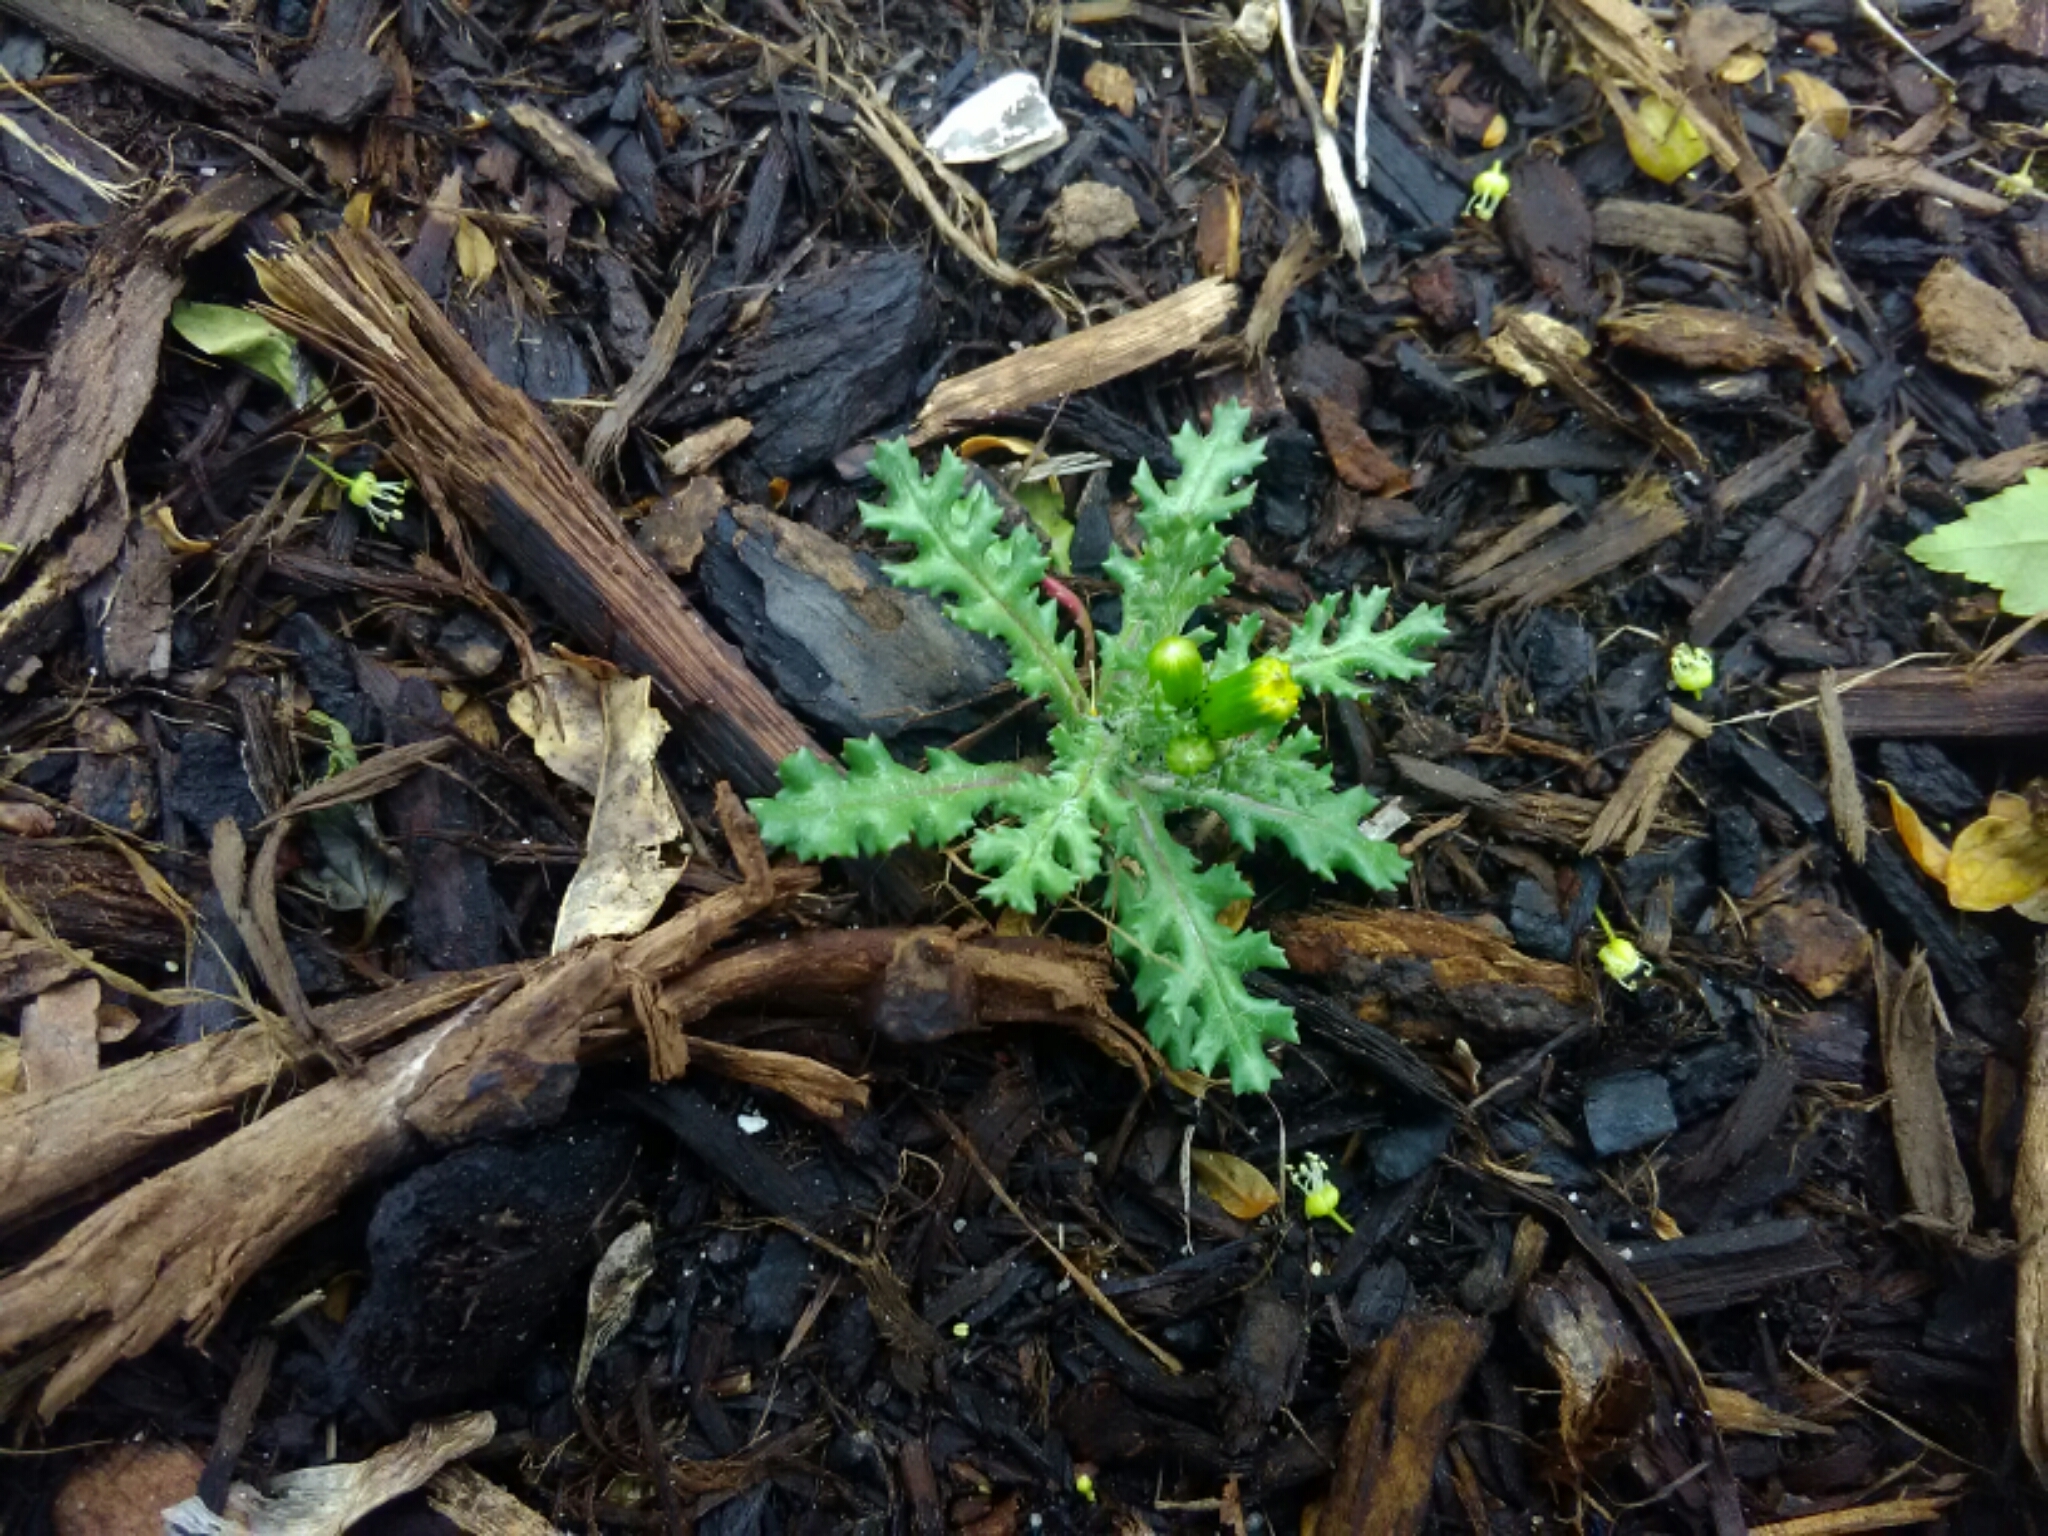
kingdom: Plantae
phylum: Tracheophyta
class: Magnoliopsida
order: Asterales
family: Asteraceae
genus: Senecio
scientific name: Senecio vulgaris
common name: Old-man-in-the-spring
